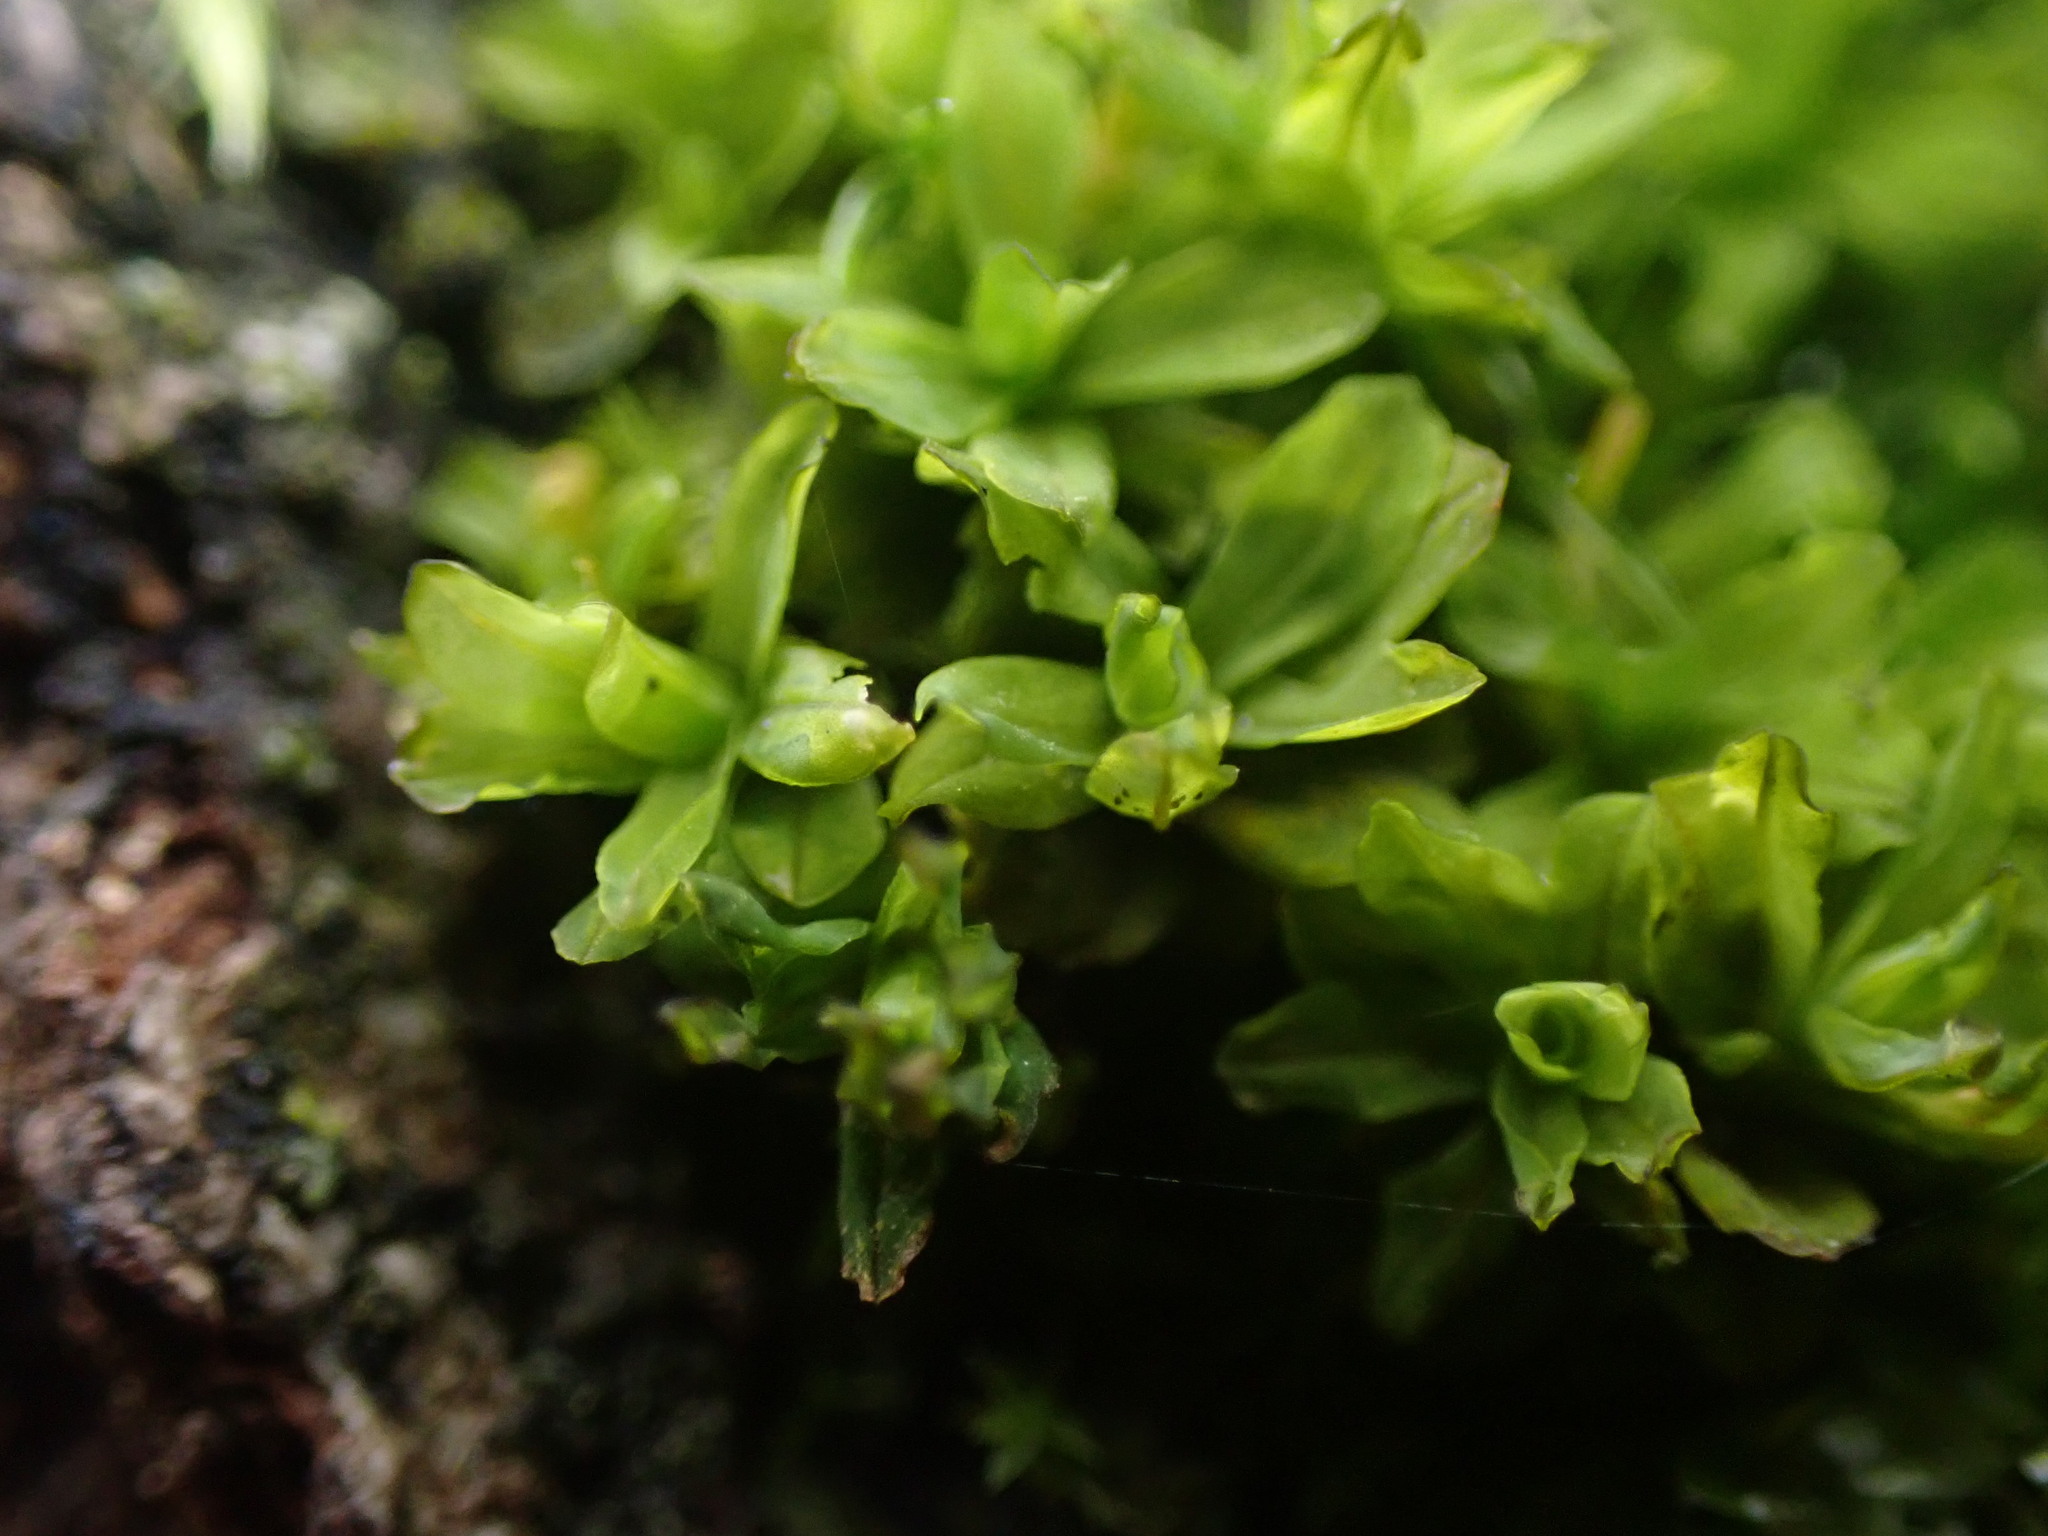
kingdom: Plantae
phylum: Bryophyta
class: Bryopsida
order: Pottiales
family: Pottiaceae
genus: Syntrichia
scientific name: Syntrichia latifolia
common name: Water screw-moss
